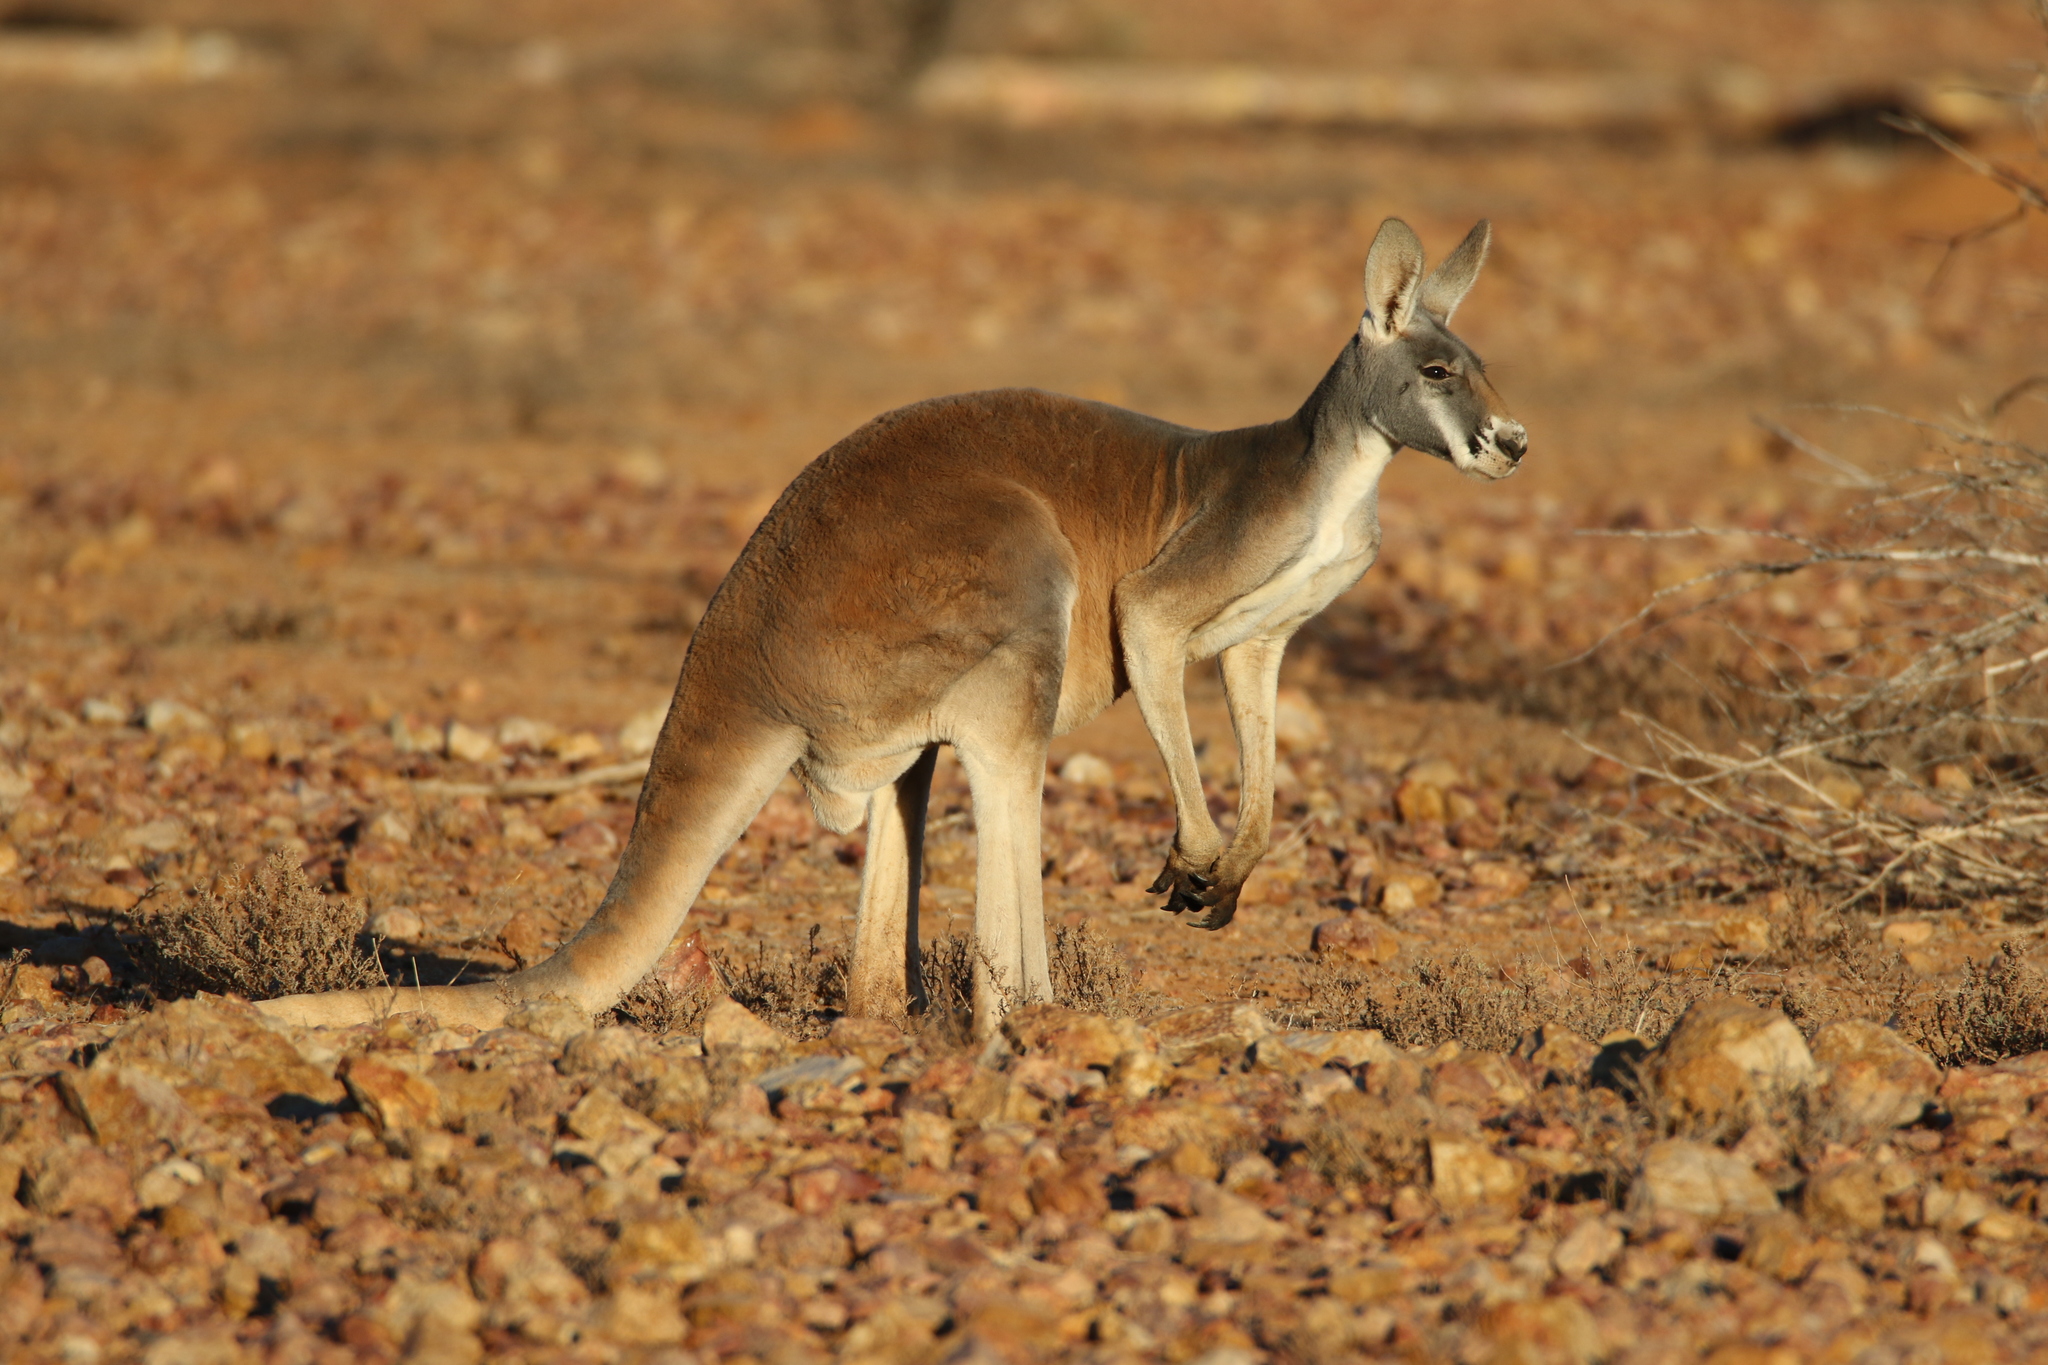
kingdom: Animalia
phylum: Chordata
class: Mammalia
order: Diprotodontia
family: Macropodidae
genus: Macropus
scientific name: Macropus rufus
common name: Red kangaroo
